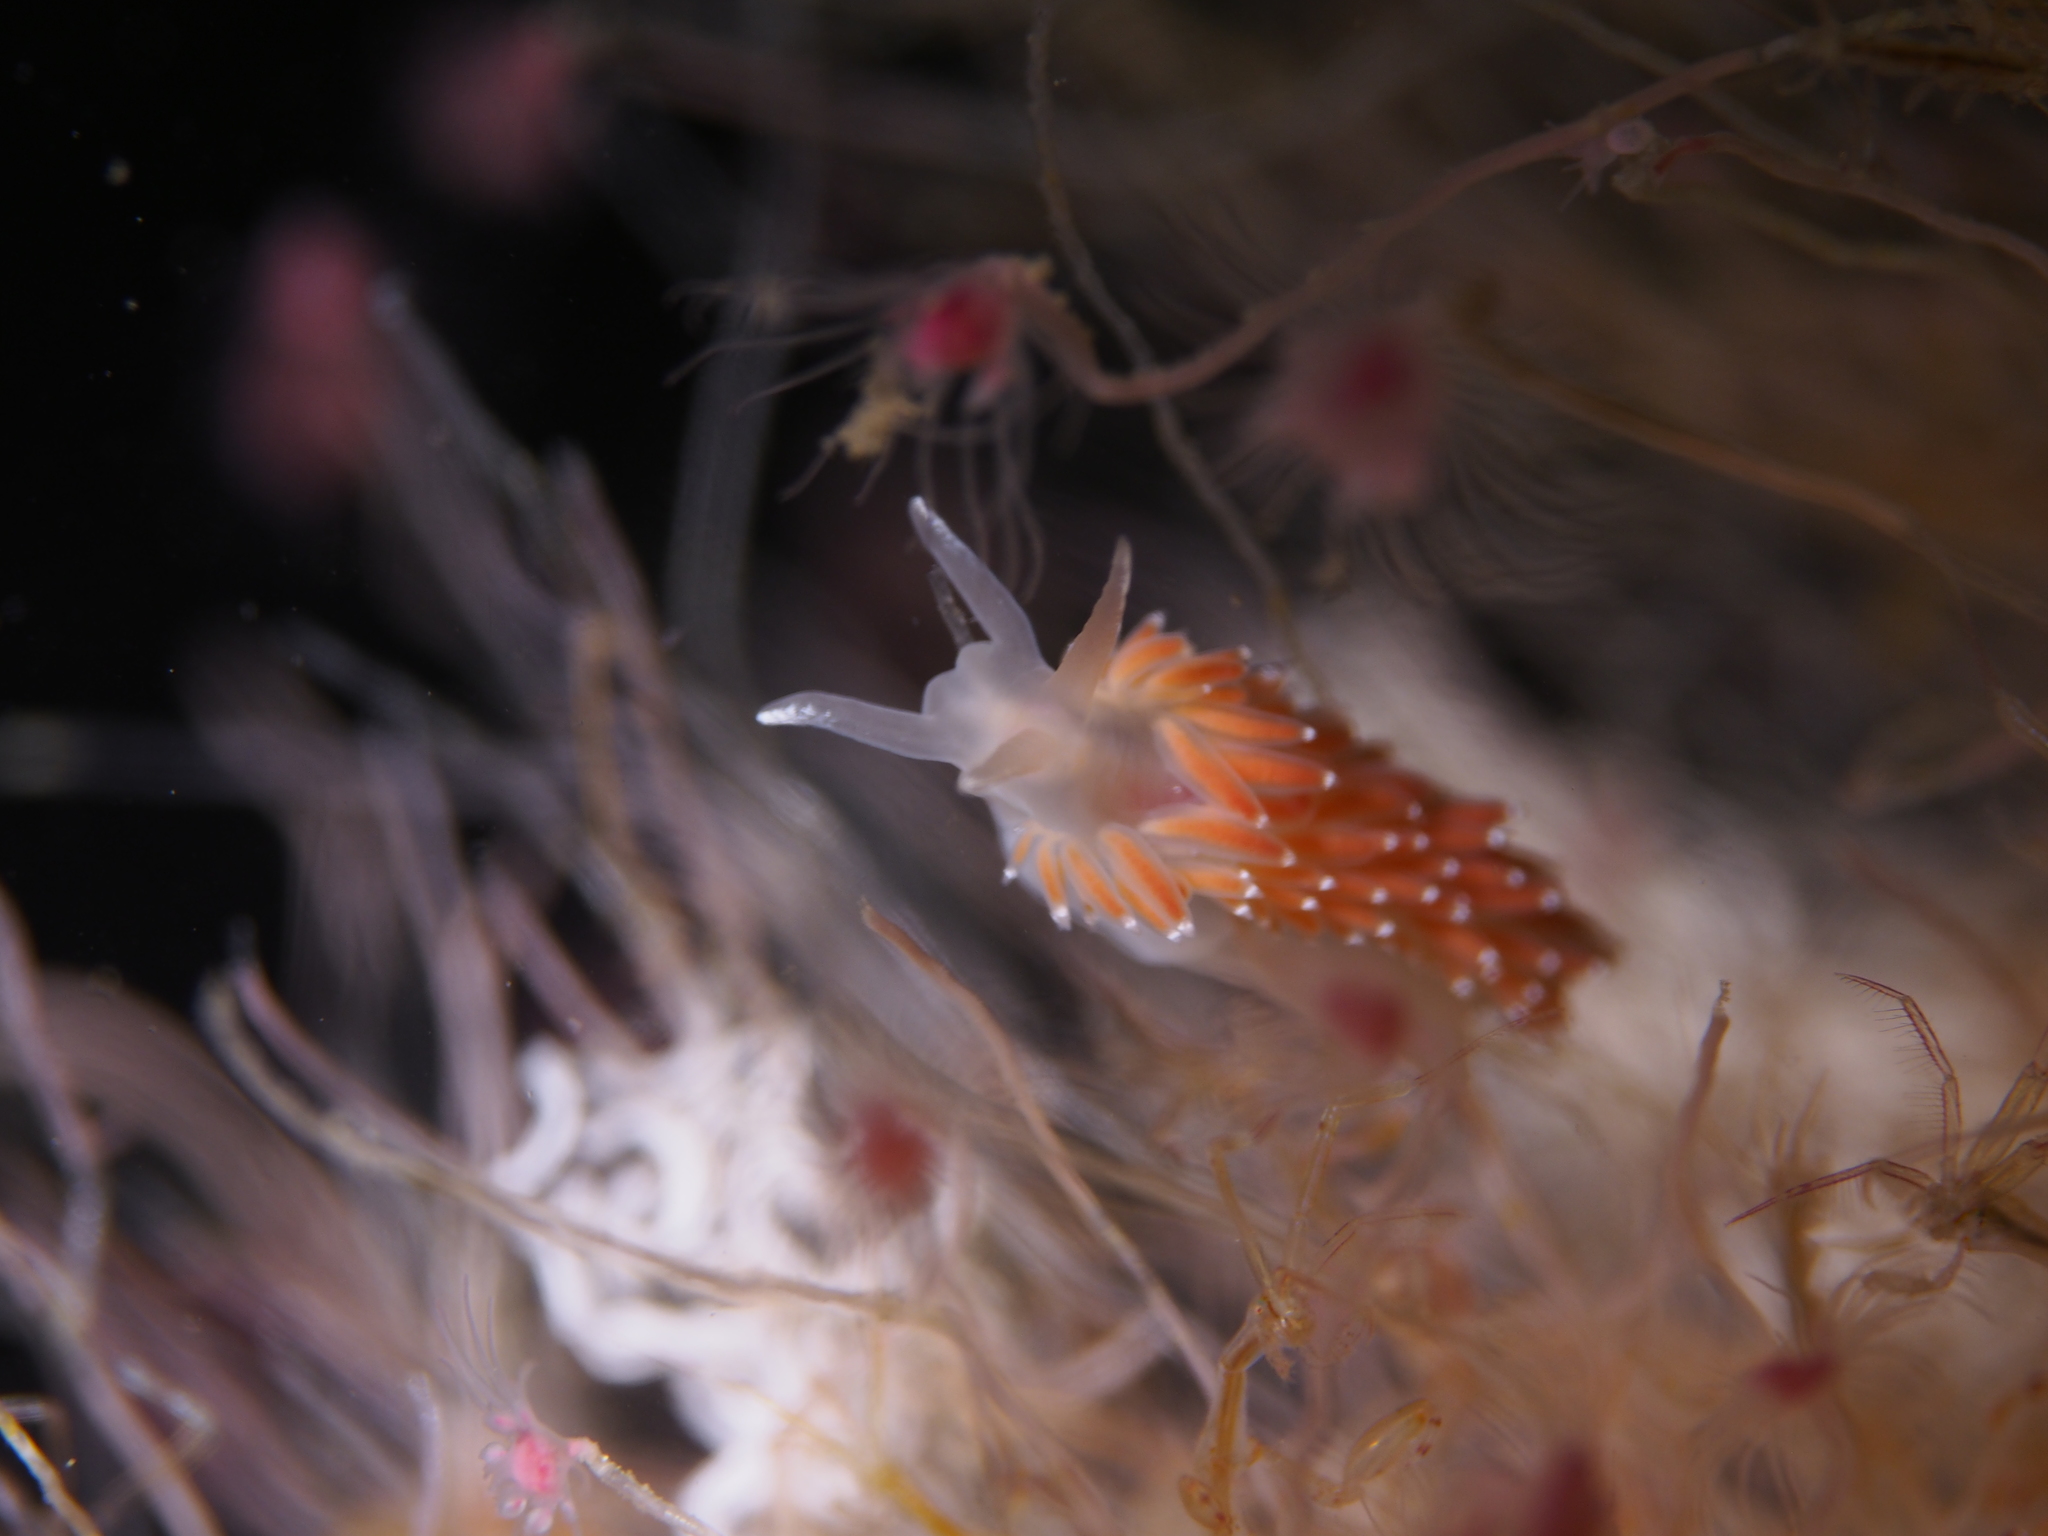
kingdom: Animalia
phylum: Mollusca
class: Gastropoda
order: Nudibranchia
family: Coryphellidae
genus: Coryphella
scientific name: Coryphella verrucosa
